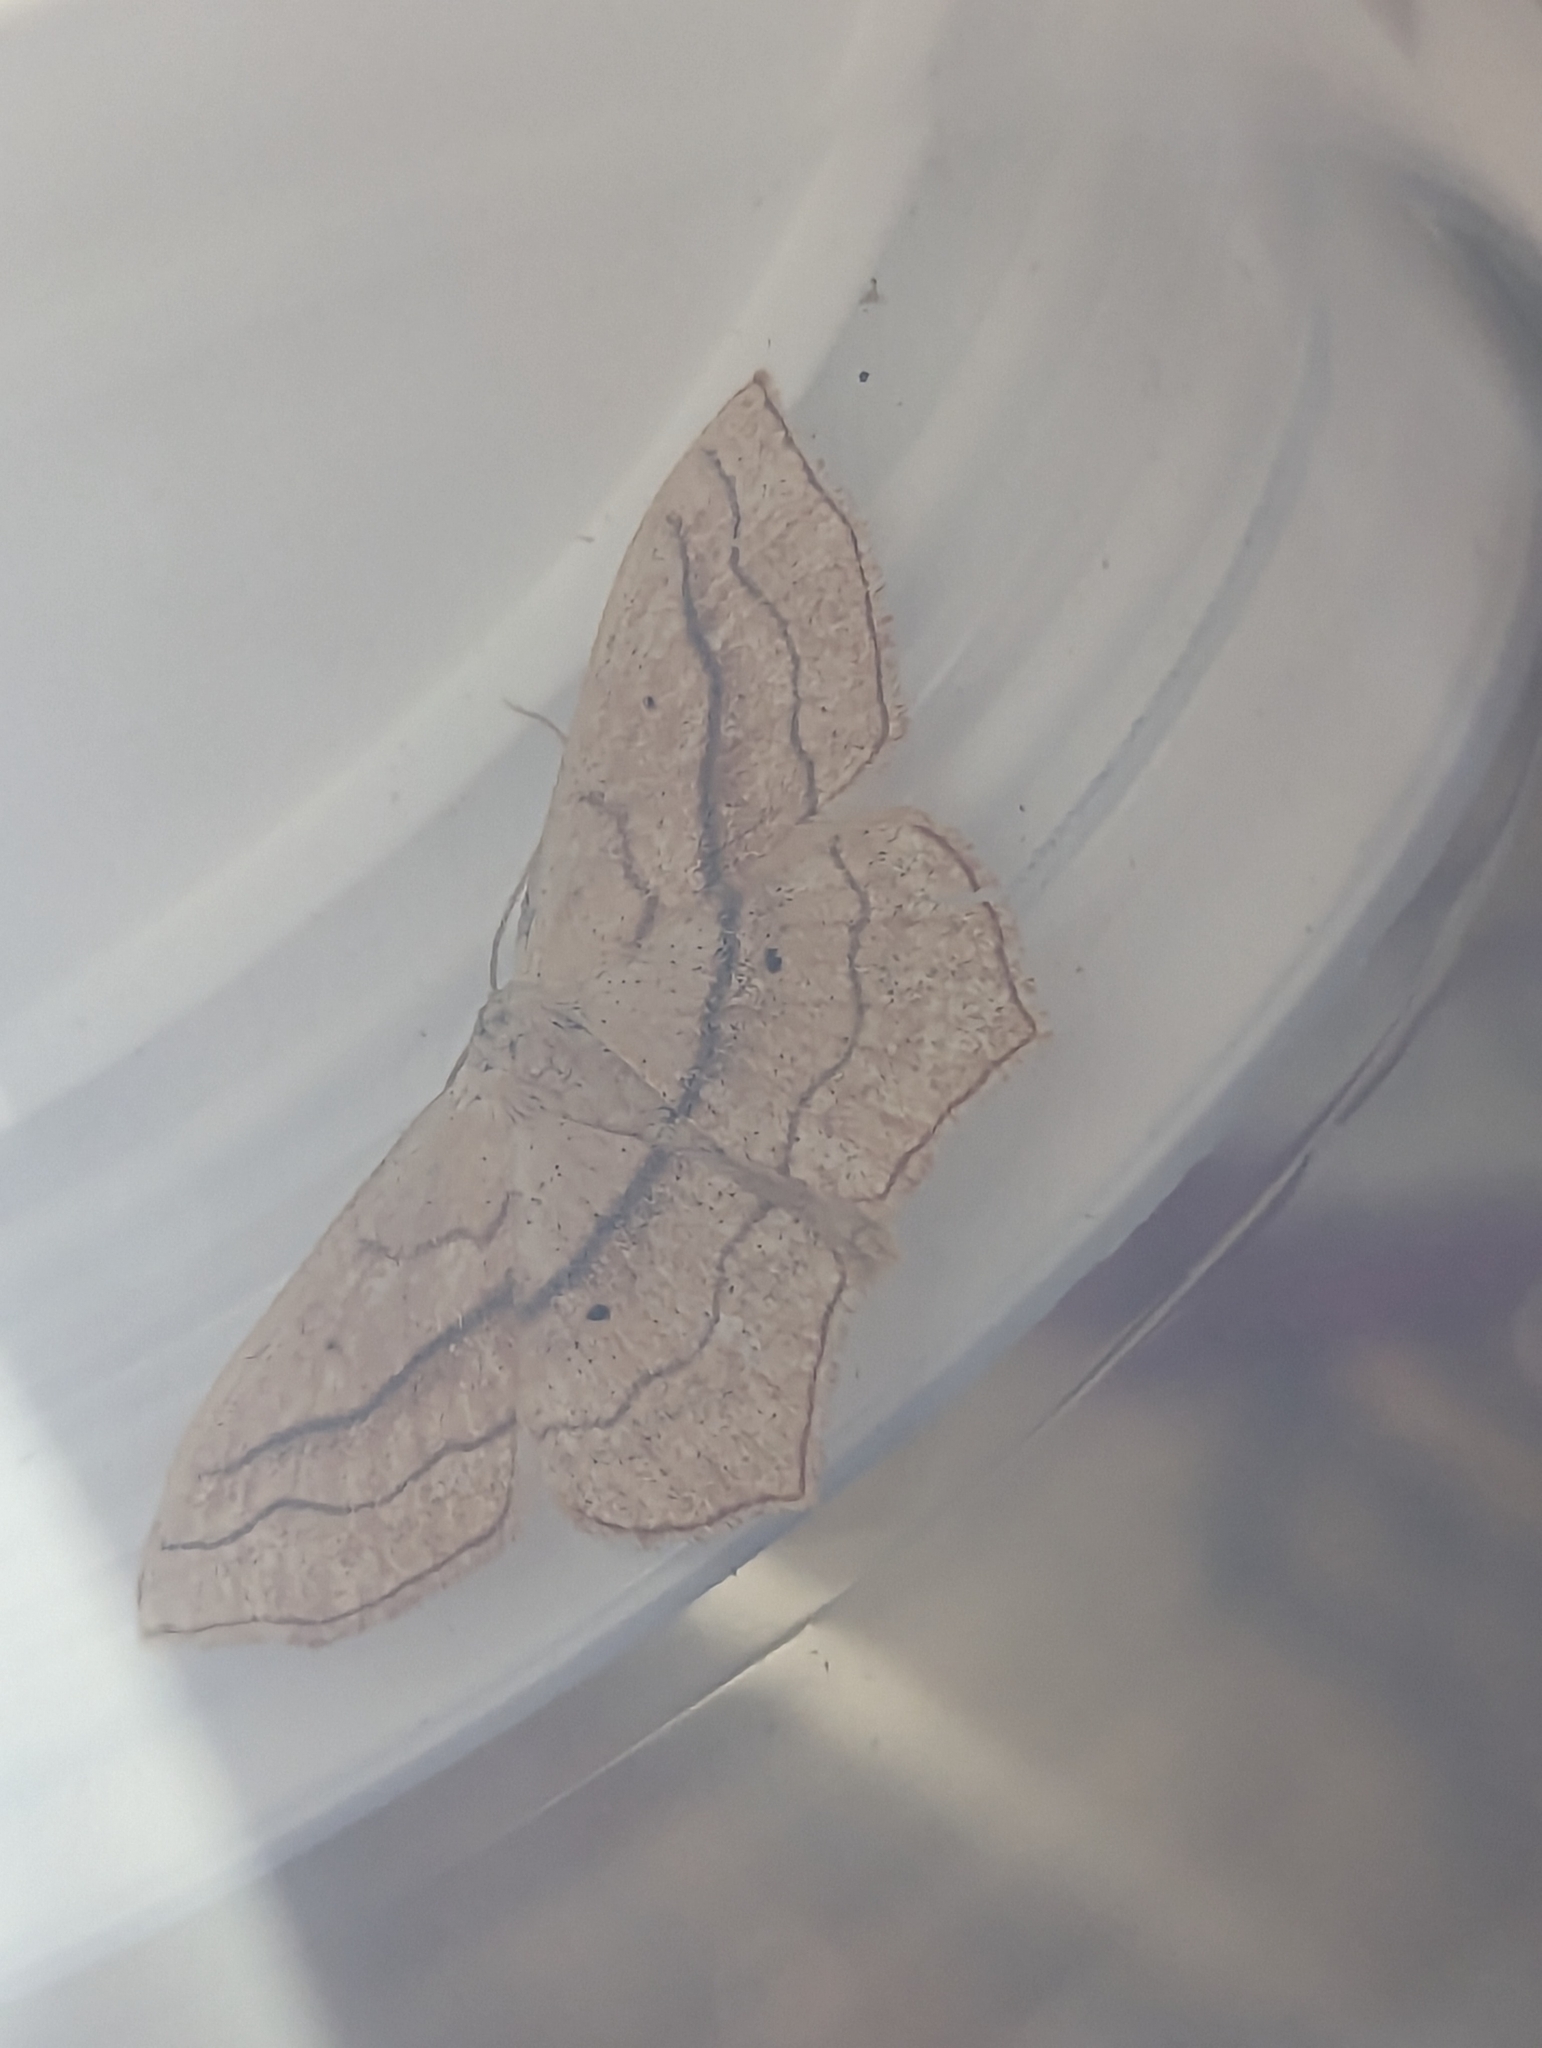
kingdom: Animalia
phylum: Arthropoda
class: Insecta
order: Lepidoptera
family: Geometridae
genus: Scopula
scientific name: Scopula imitaria
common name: Small blood-vein
